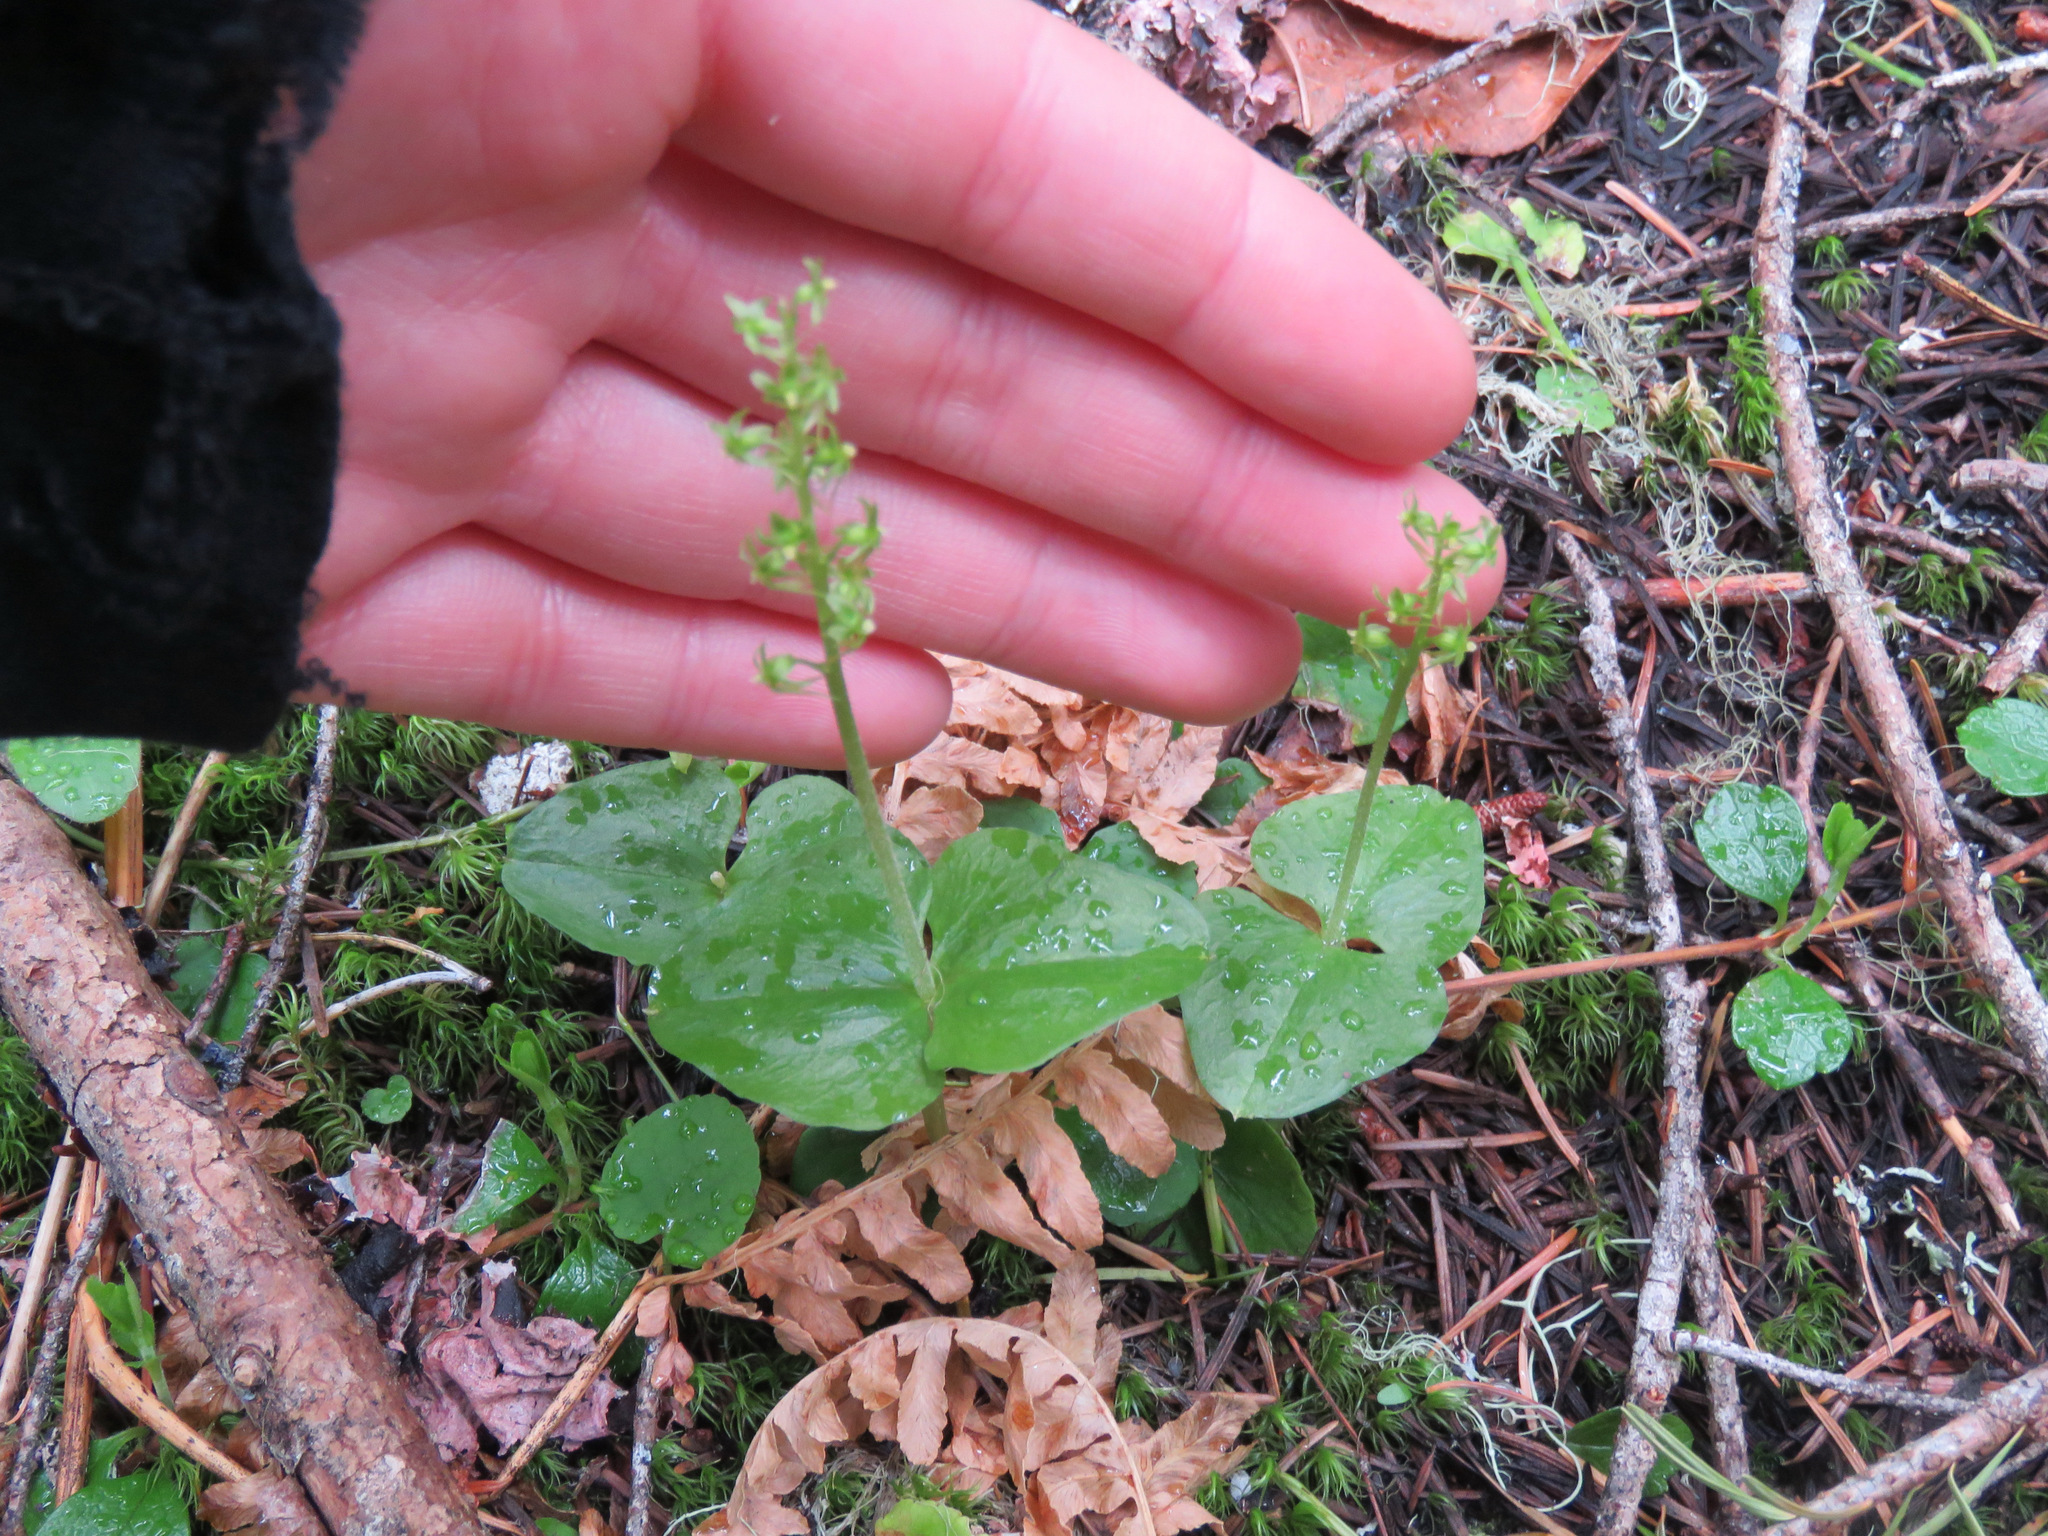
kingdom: Plantae
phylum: Tracheophyta
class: Liliopsida
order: Asparagales
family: Orchidaceae
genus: Neottia
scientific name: Neottia cordata
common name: Lesser twayblade
